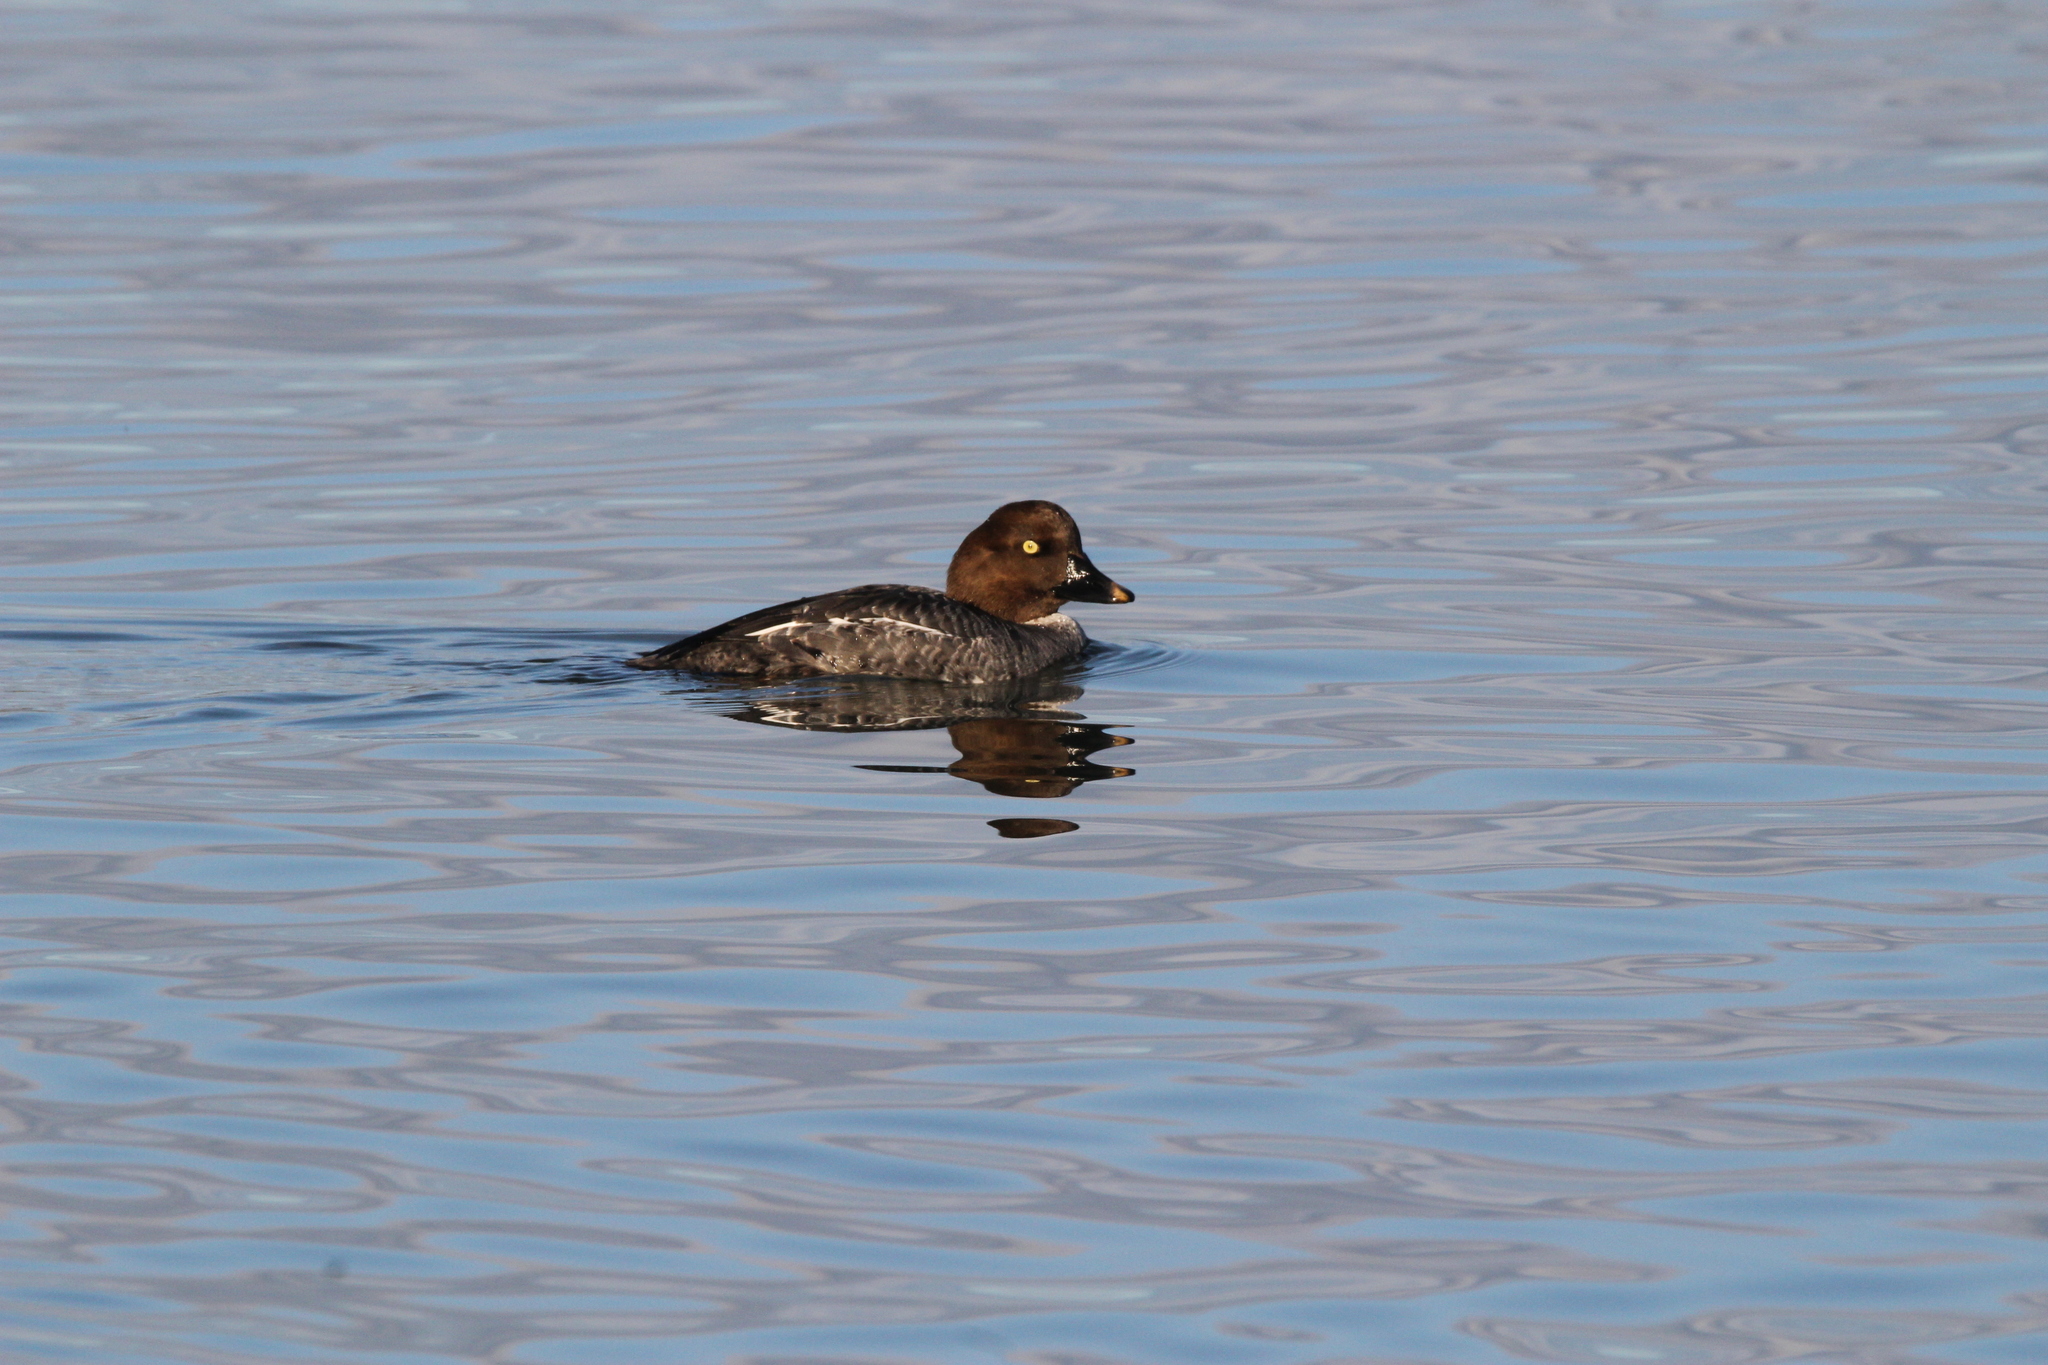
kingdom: Animalia
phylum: Chordata
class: Aves
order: Anseriformes
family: Anatidae
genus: Bucephala
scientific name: Bucephala clangula
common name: Common goldeneye
